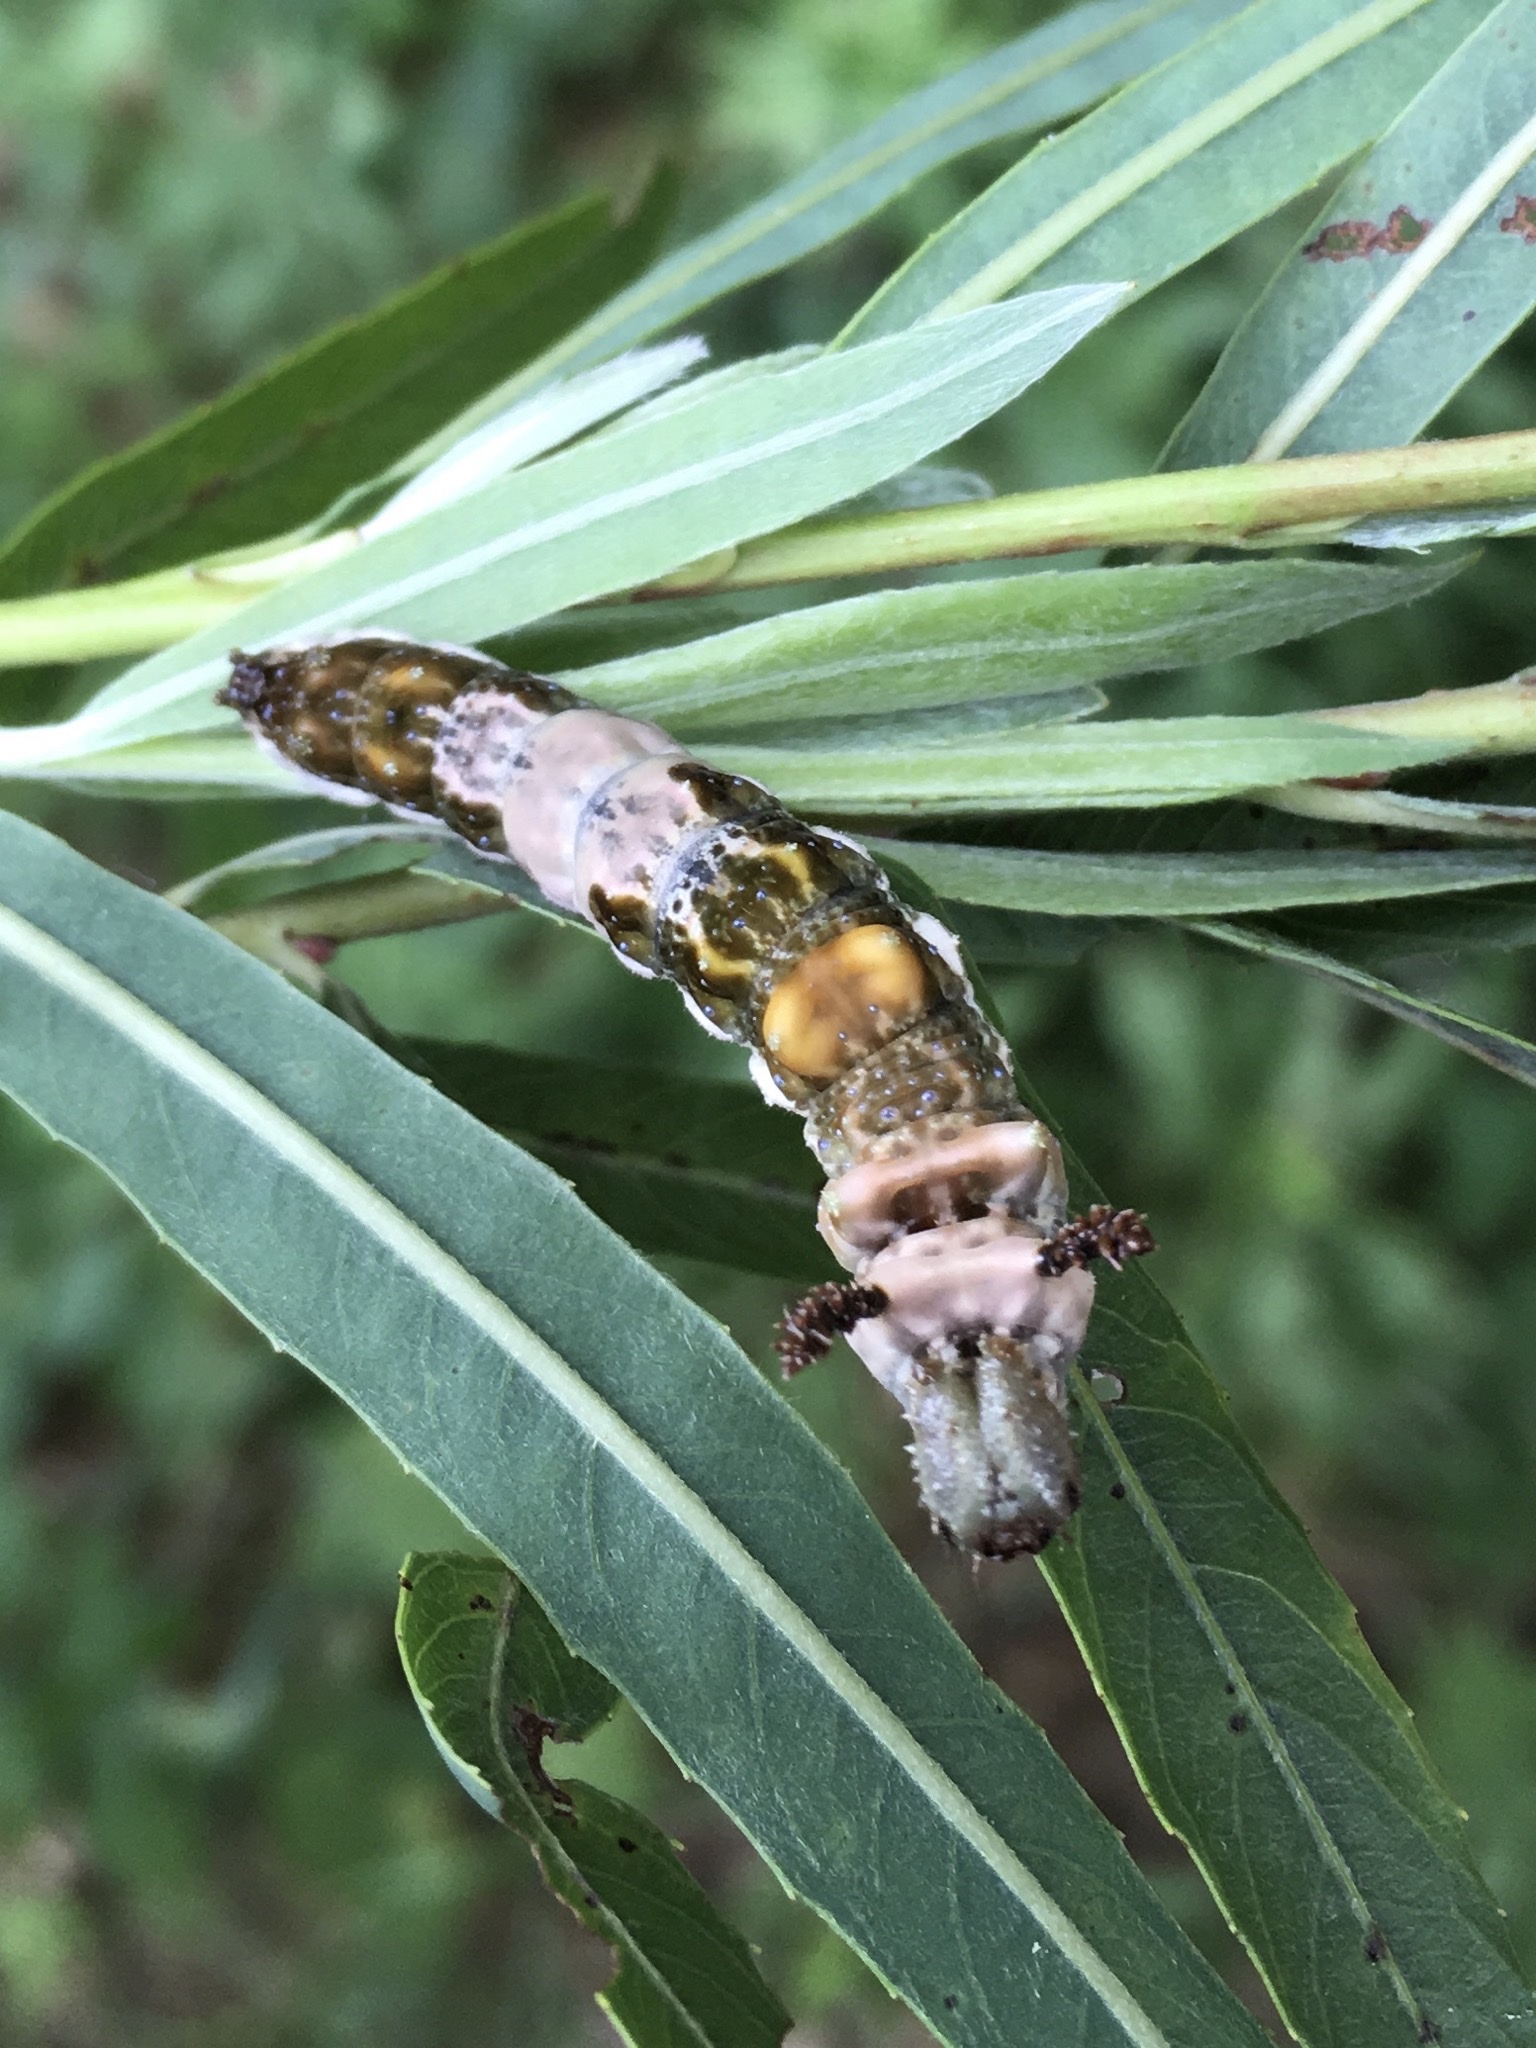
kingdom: Animalia
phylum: Arthropoda
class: Insecta
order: Lepidoptera
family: Nymphalidae
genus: Limenitis
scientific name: Limenitis
